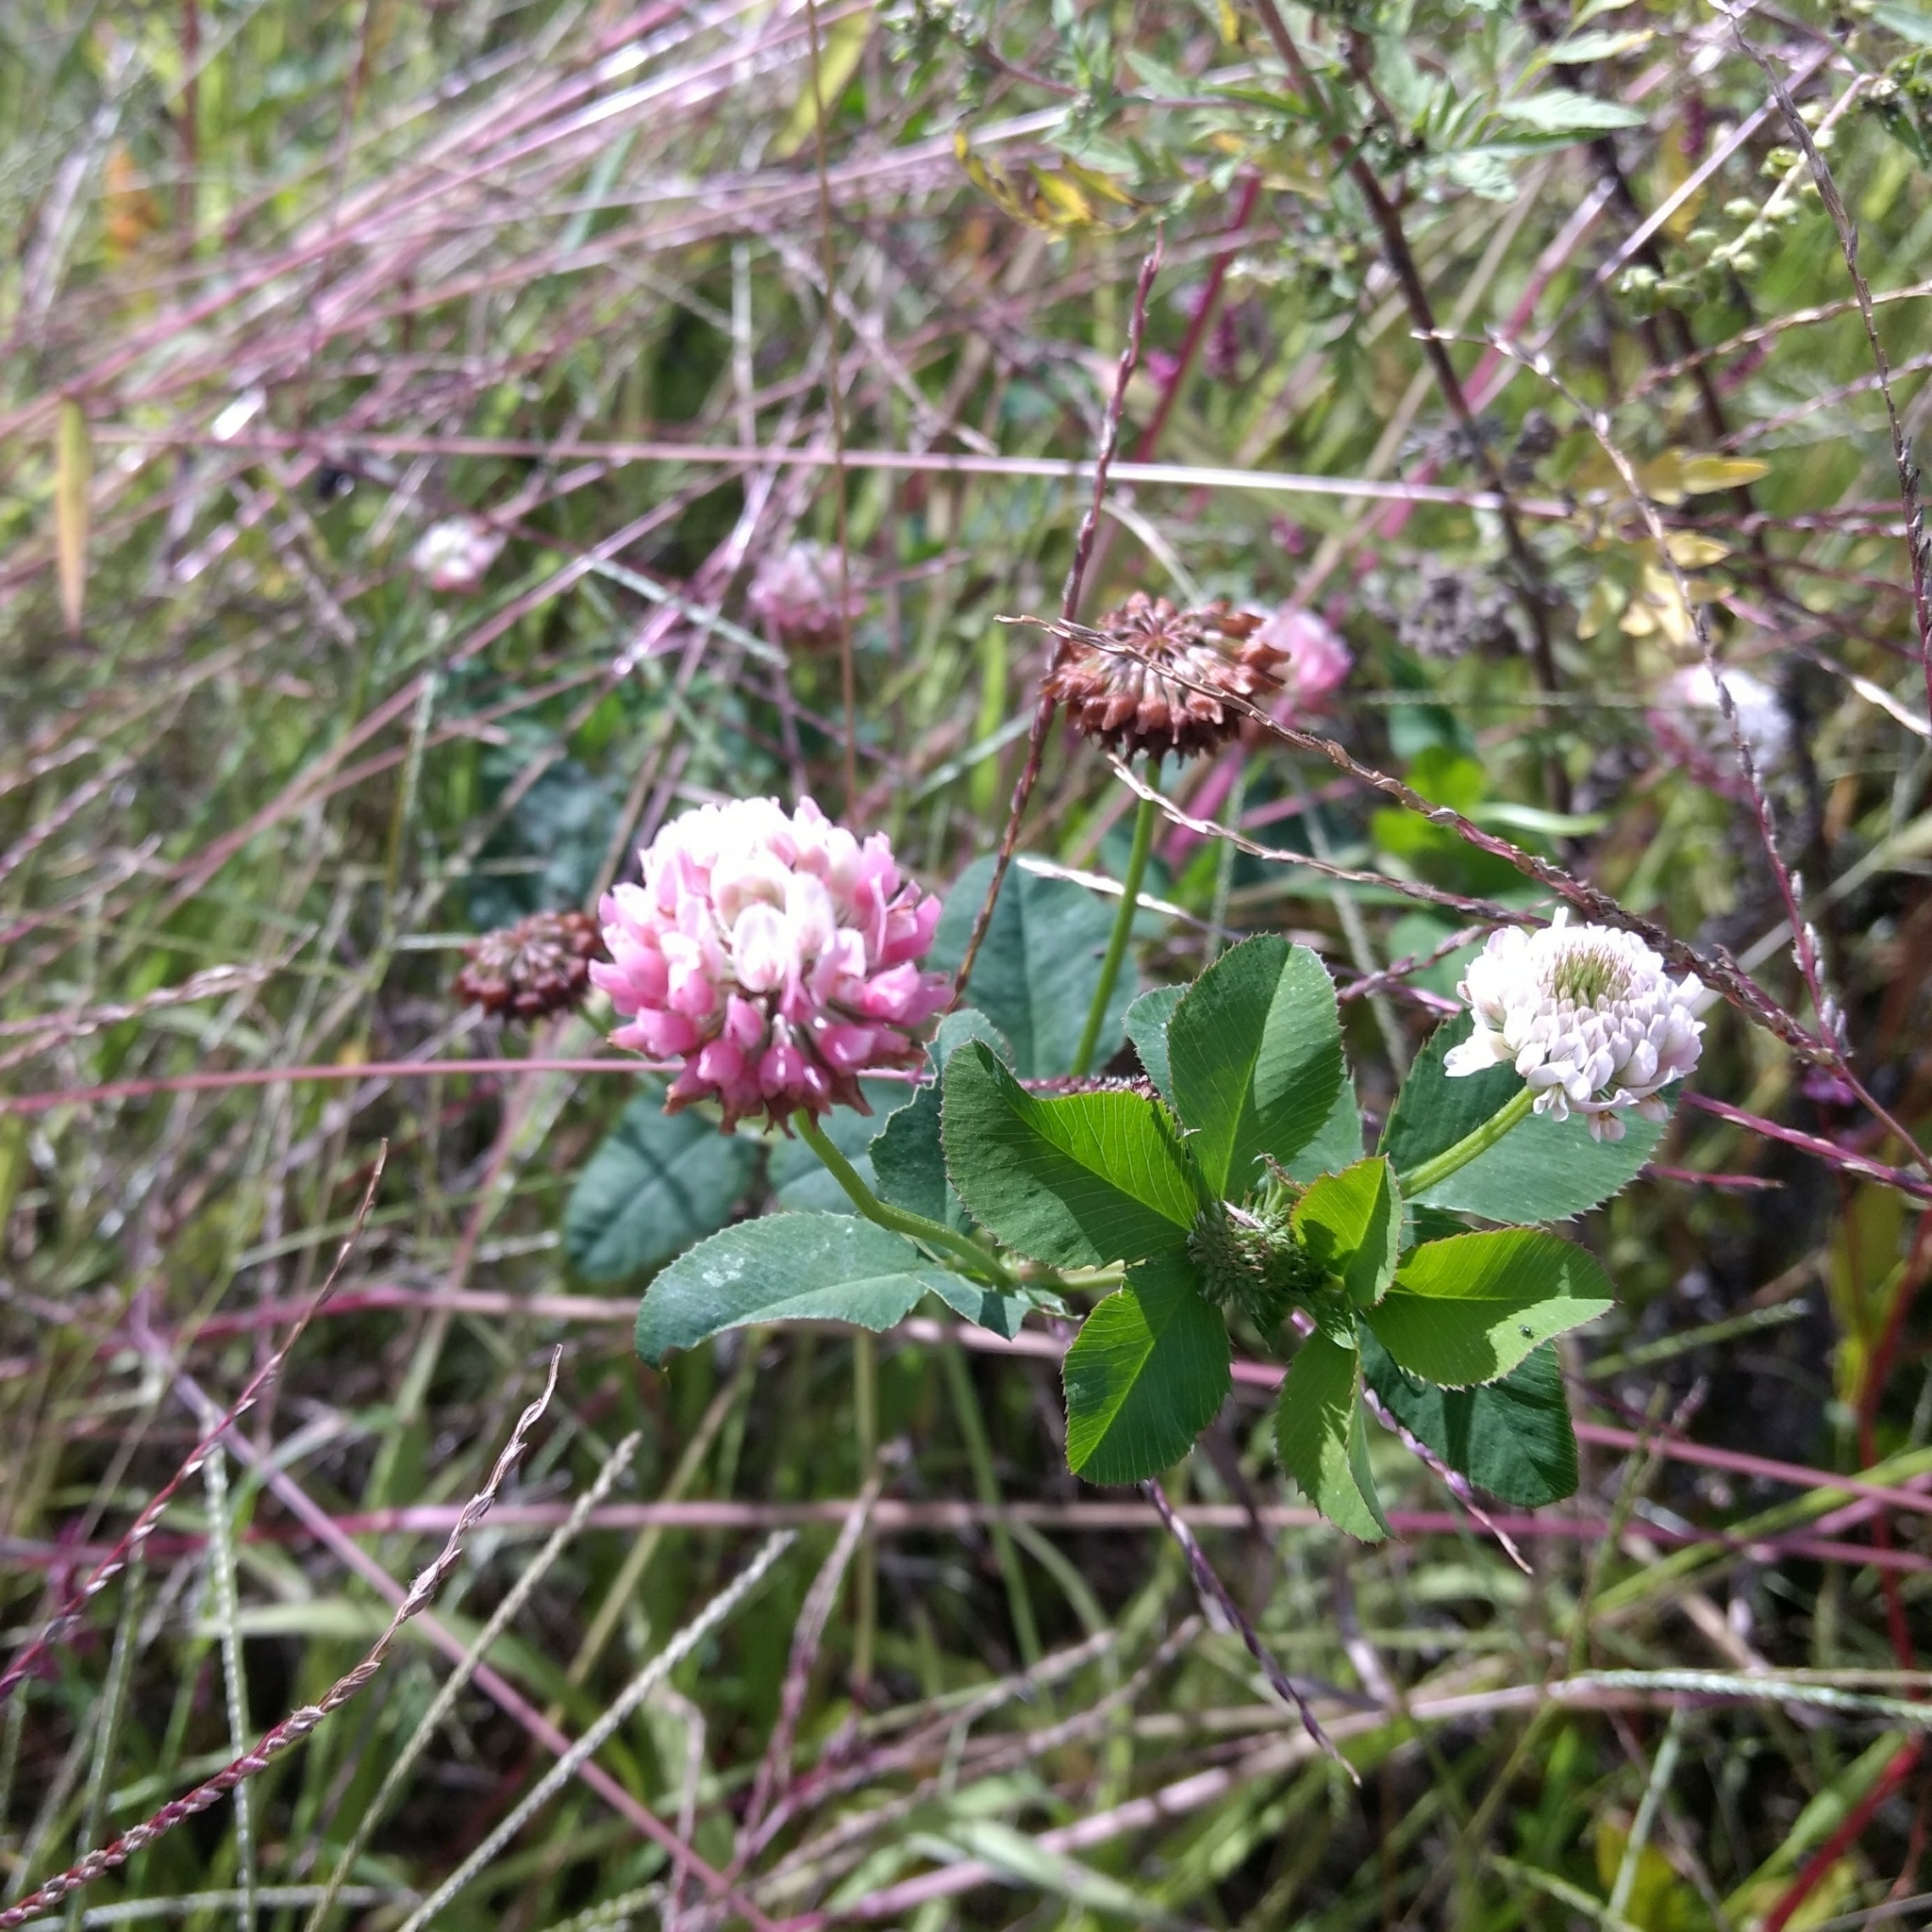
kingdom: Plantae
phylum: Tracheophyta
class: Magnoliopsida
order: Fabales
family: Fabaceae
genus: Trifolium
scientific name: Trifolium hybridum
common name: Alsike clover
